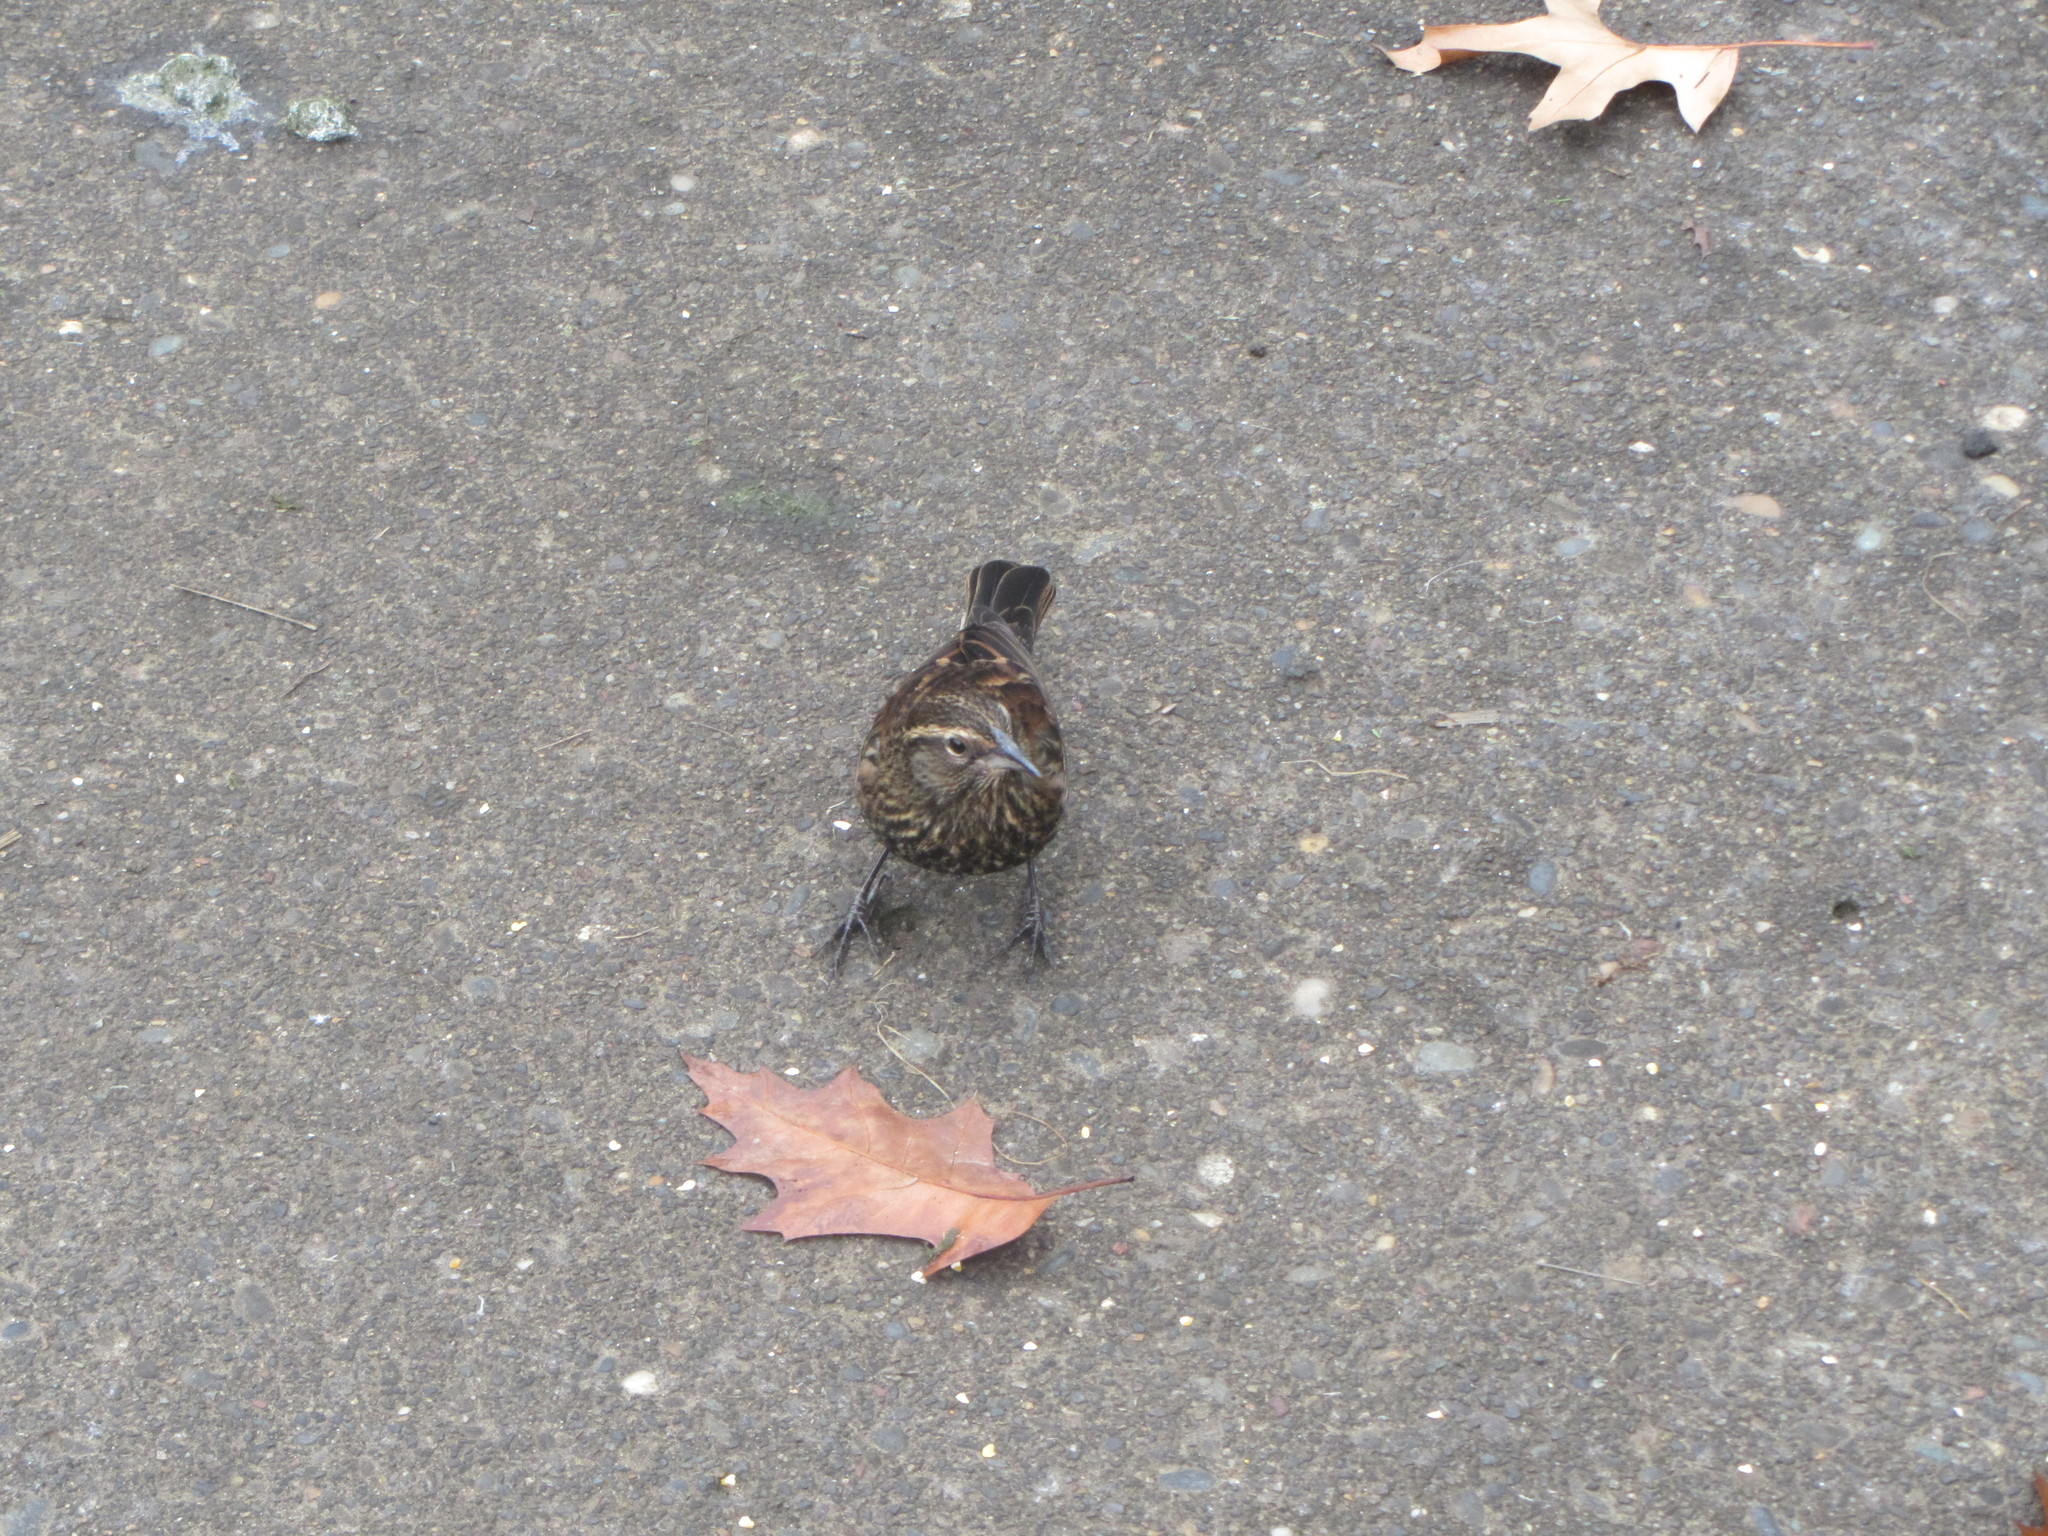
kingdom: Animalia
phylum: Chordata
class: Aves
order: Passeriformes
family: Icteridae
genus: Agelaius
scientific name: Agelaius phoeniceus
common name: Red-winged blackbird
